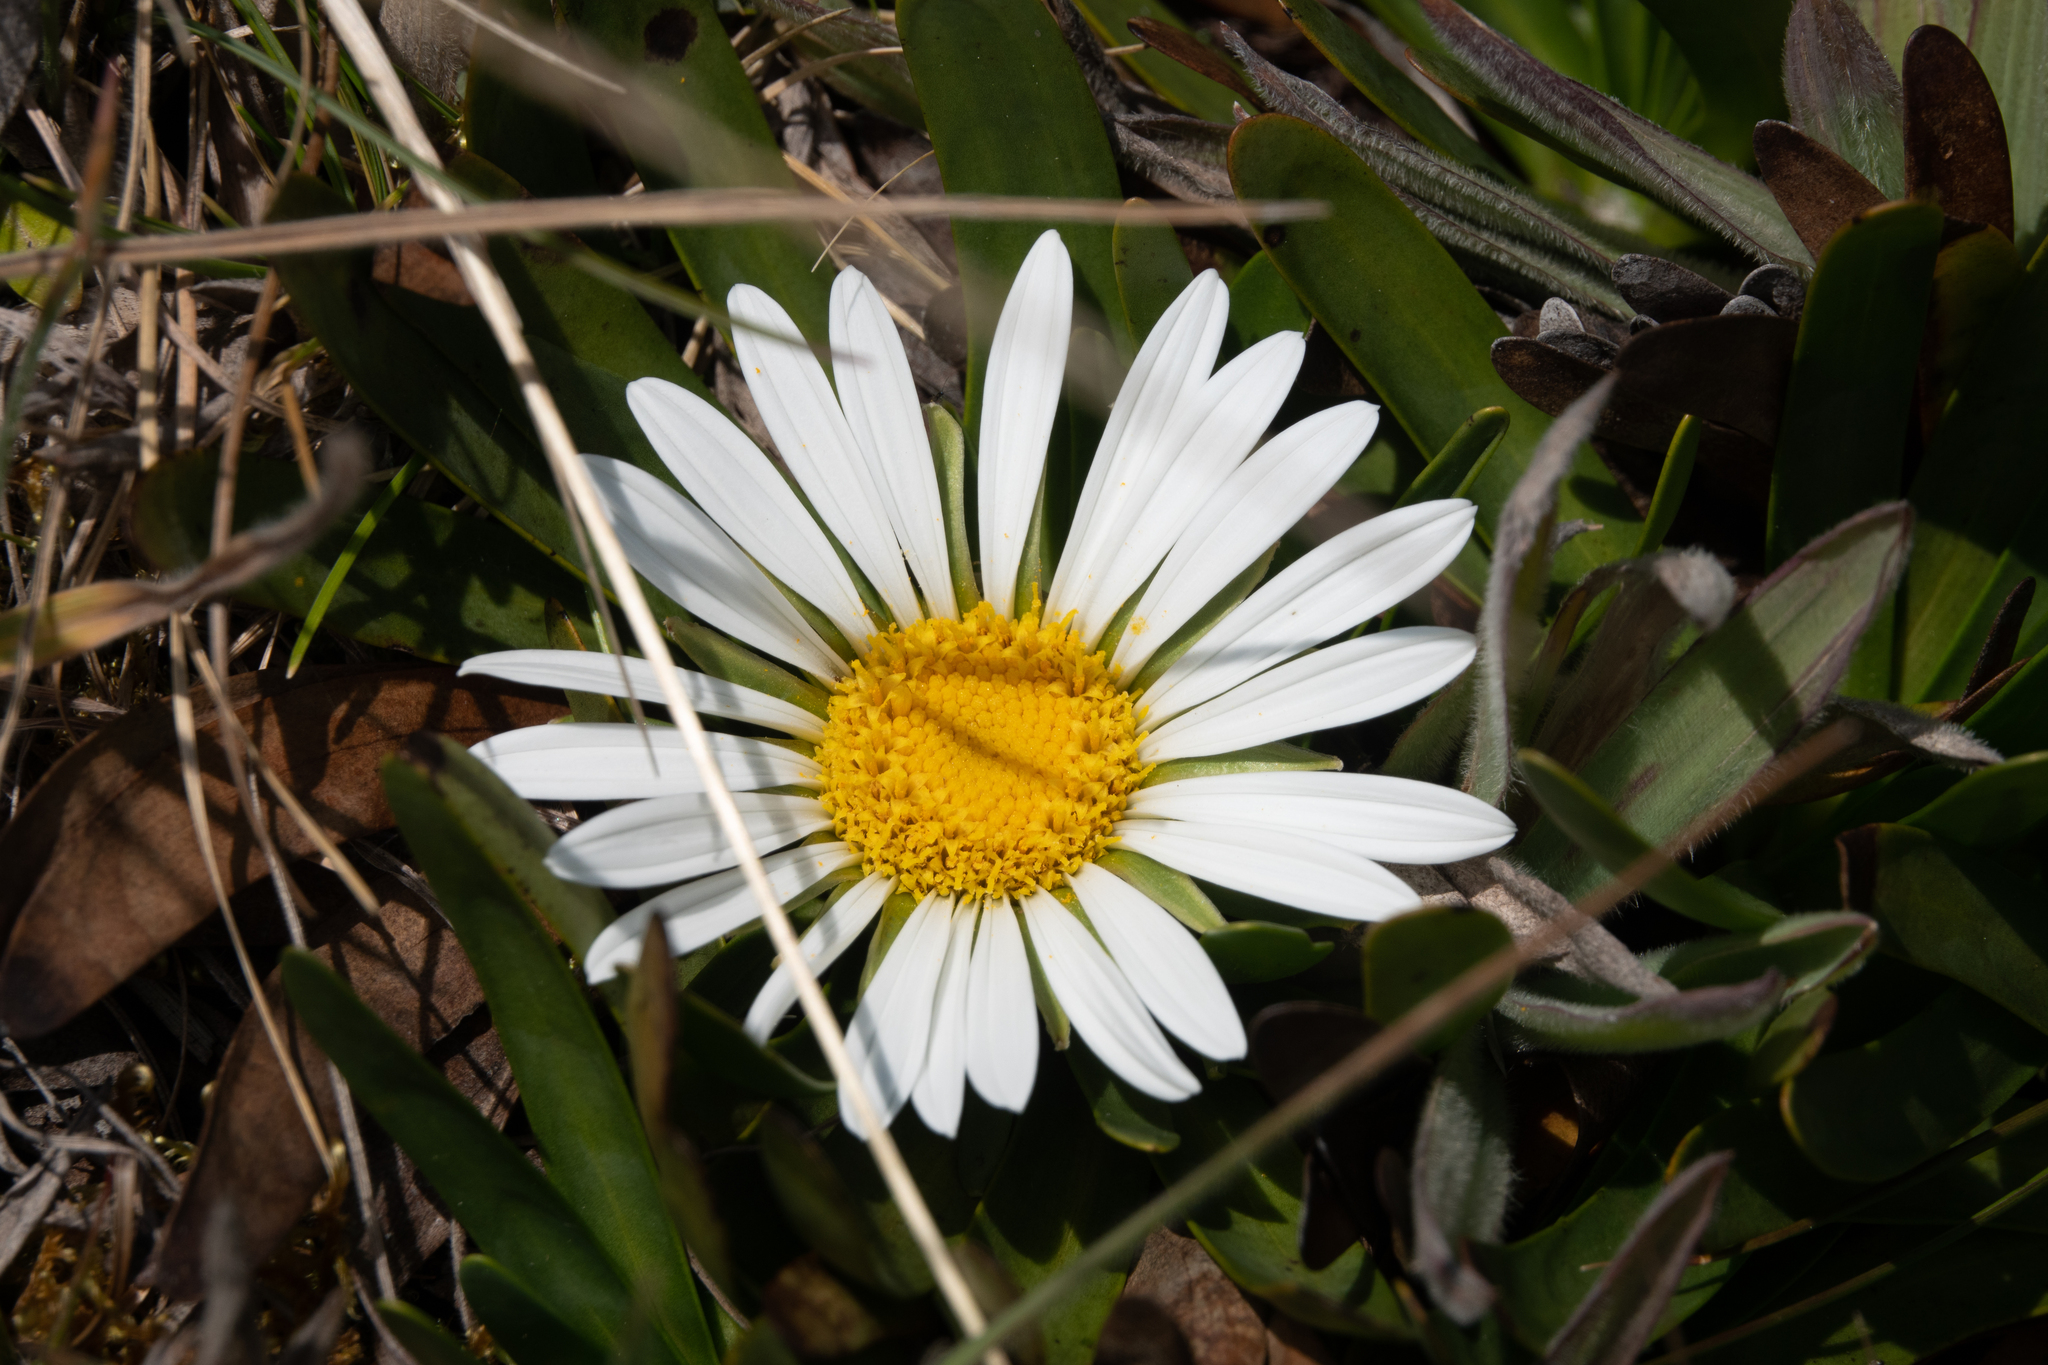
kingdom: Plantae
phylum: Tracheophyta
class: Magnoliopsida
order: Asterales
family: Asteraceae
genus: Rockhausenia
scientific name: Rockhausenia nubigena
